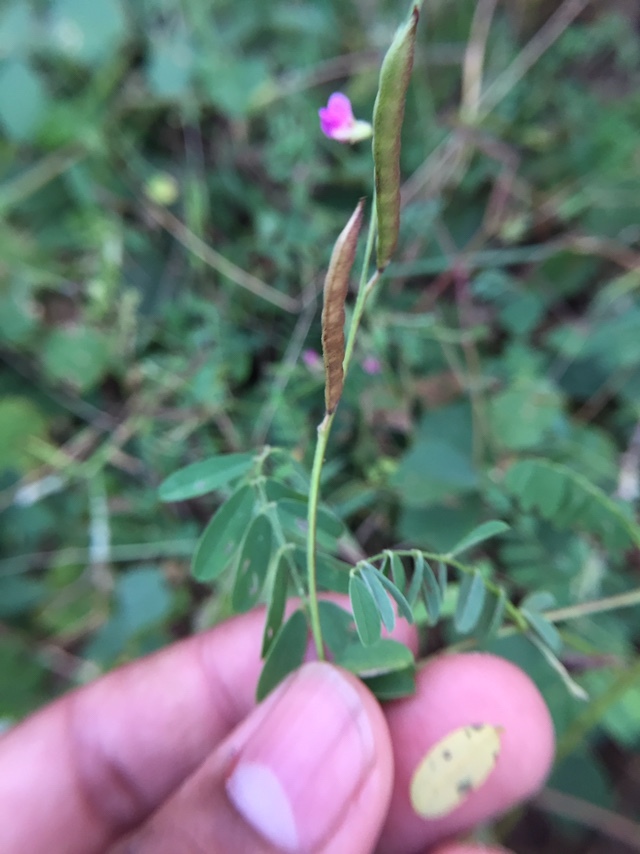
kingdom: Plantae
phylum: Tracheophyta
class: Magnoliopsida
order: Fabales
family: Fabaceae
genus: Tephrosia
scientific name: Tephrosia purpurea
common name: Fishpoison
